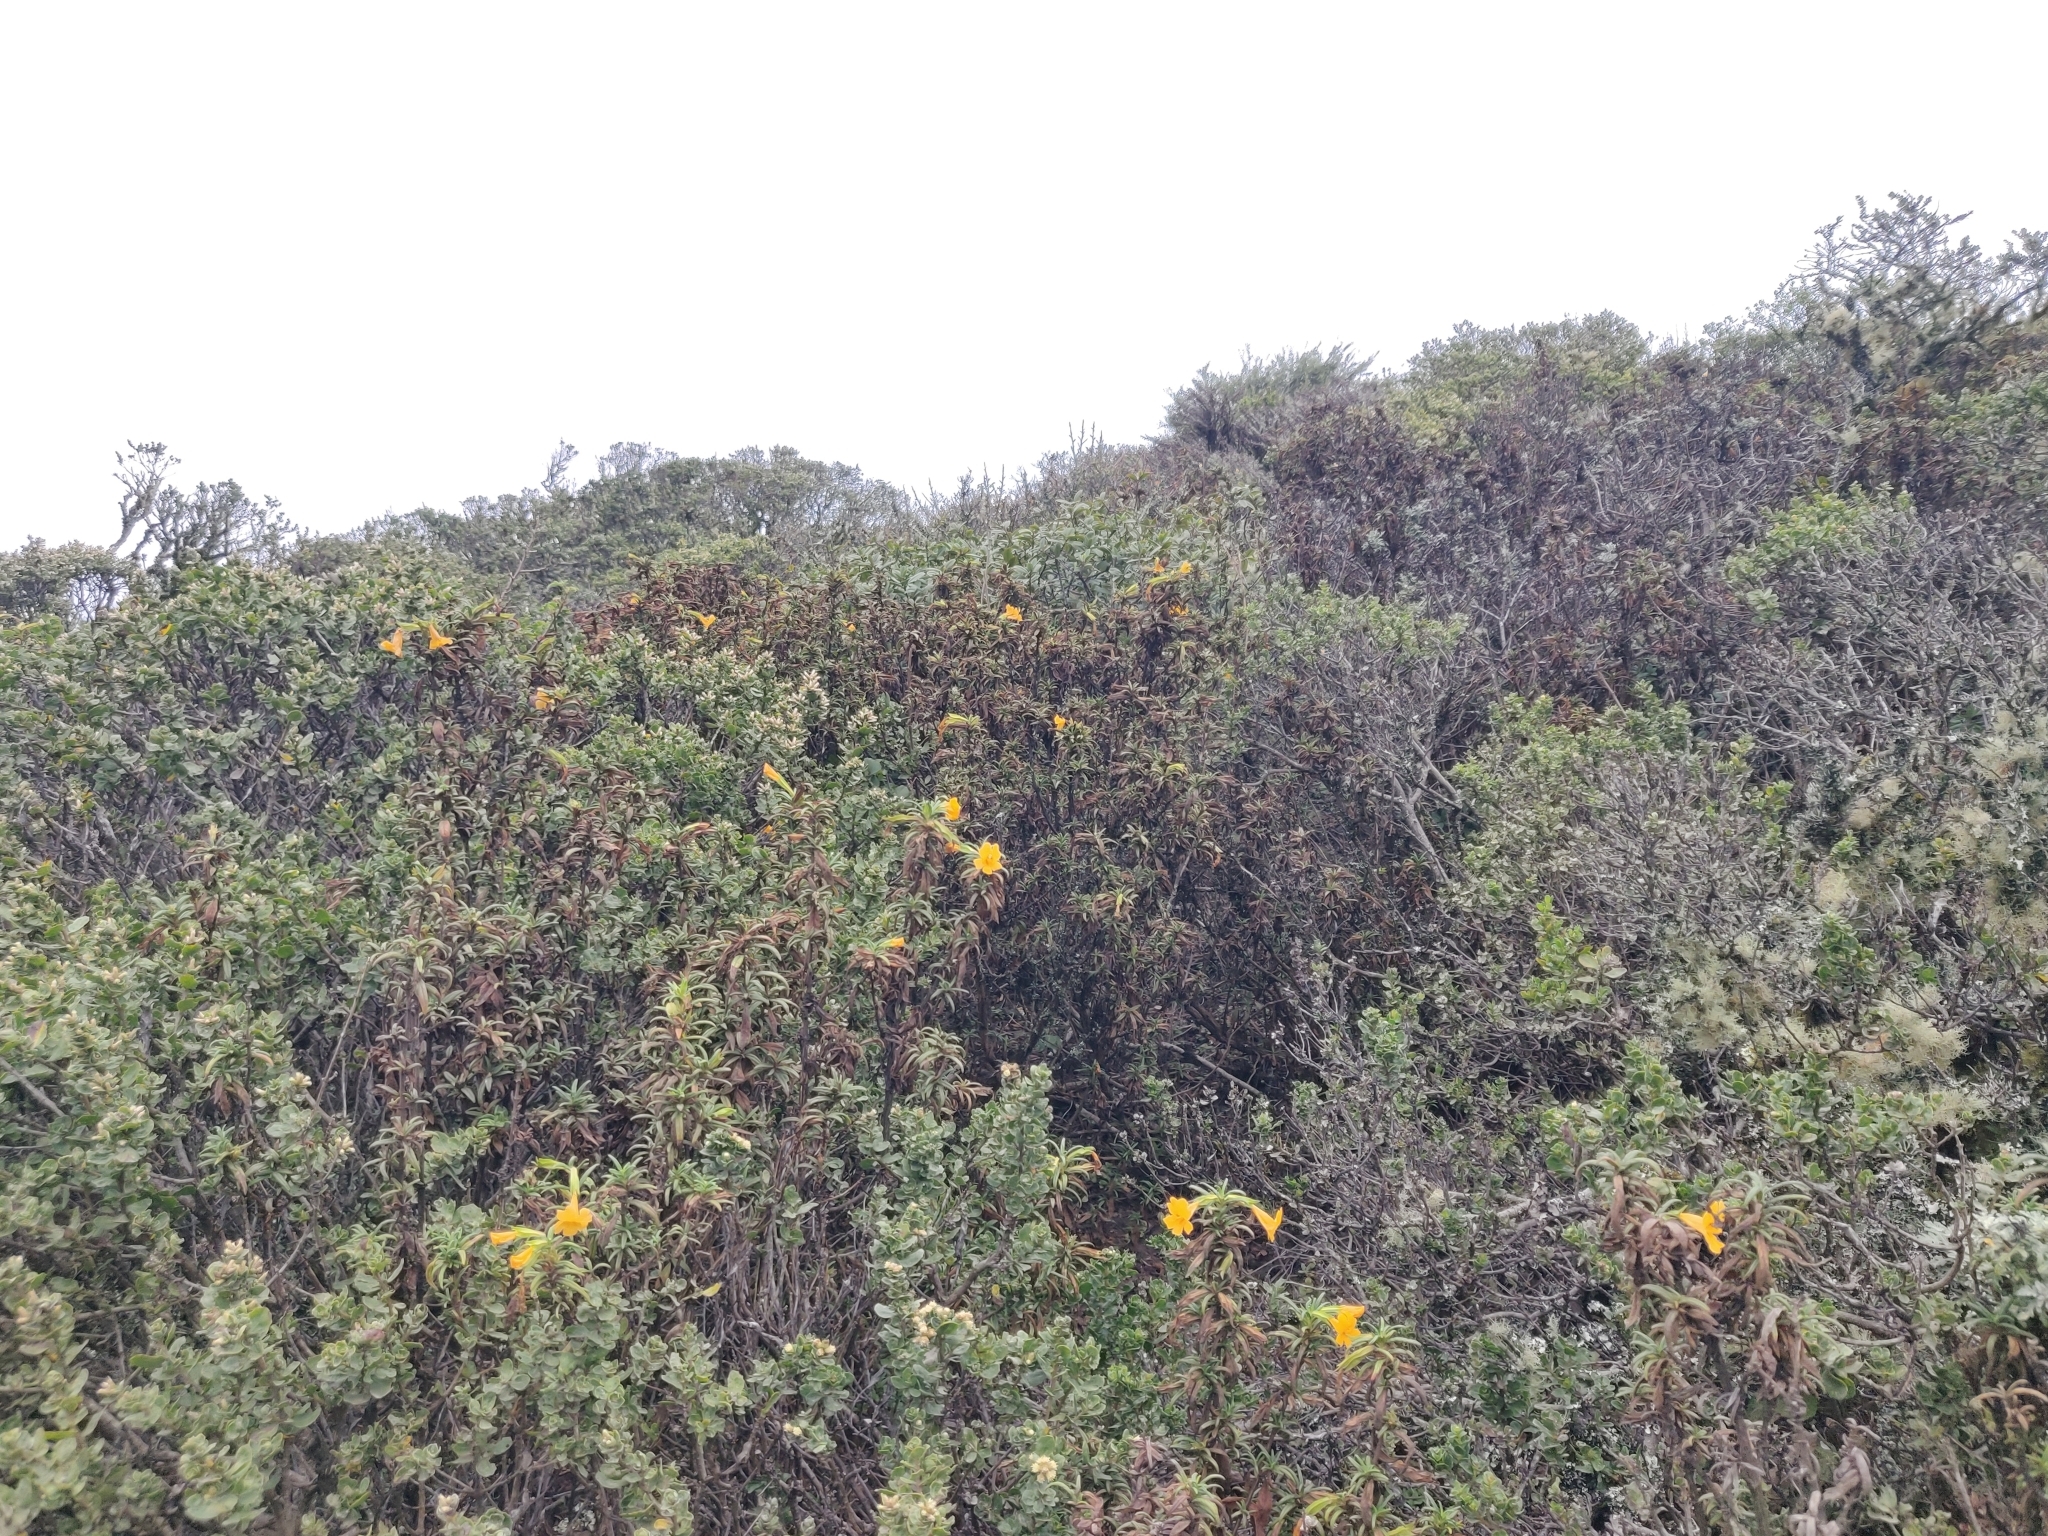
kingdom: Plantae
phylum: Tracheophyta
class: Magnoliopsida
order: Lamiales
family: Phrymaceae
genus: Diplacus
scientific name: Diplacus aurantiacus
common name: Bush monkey-flower
